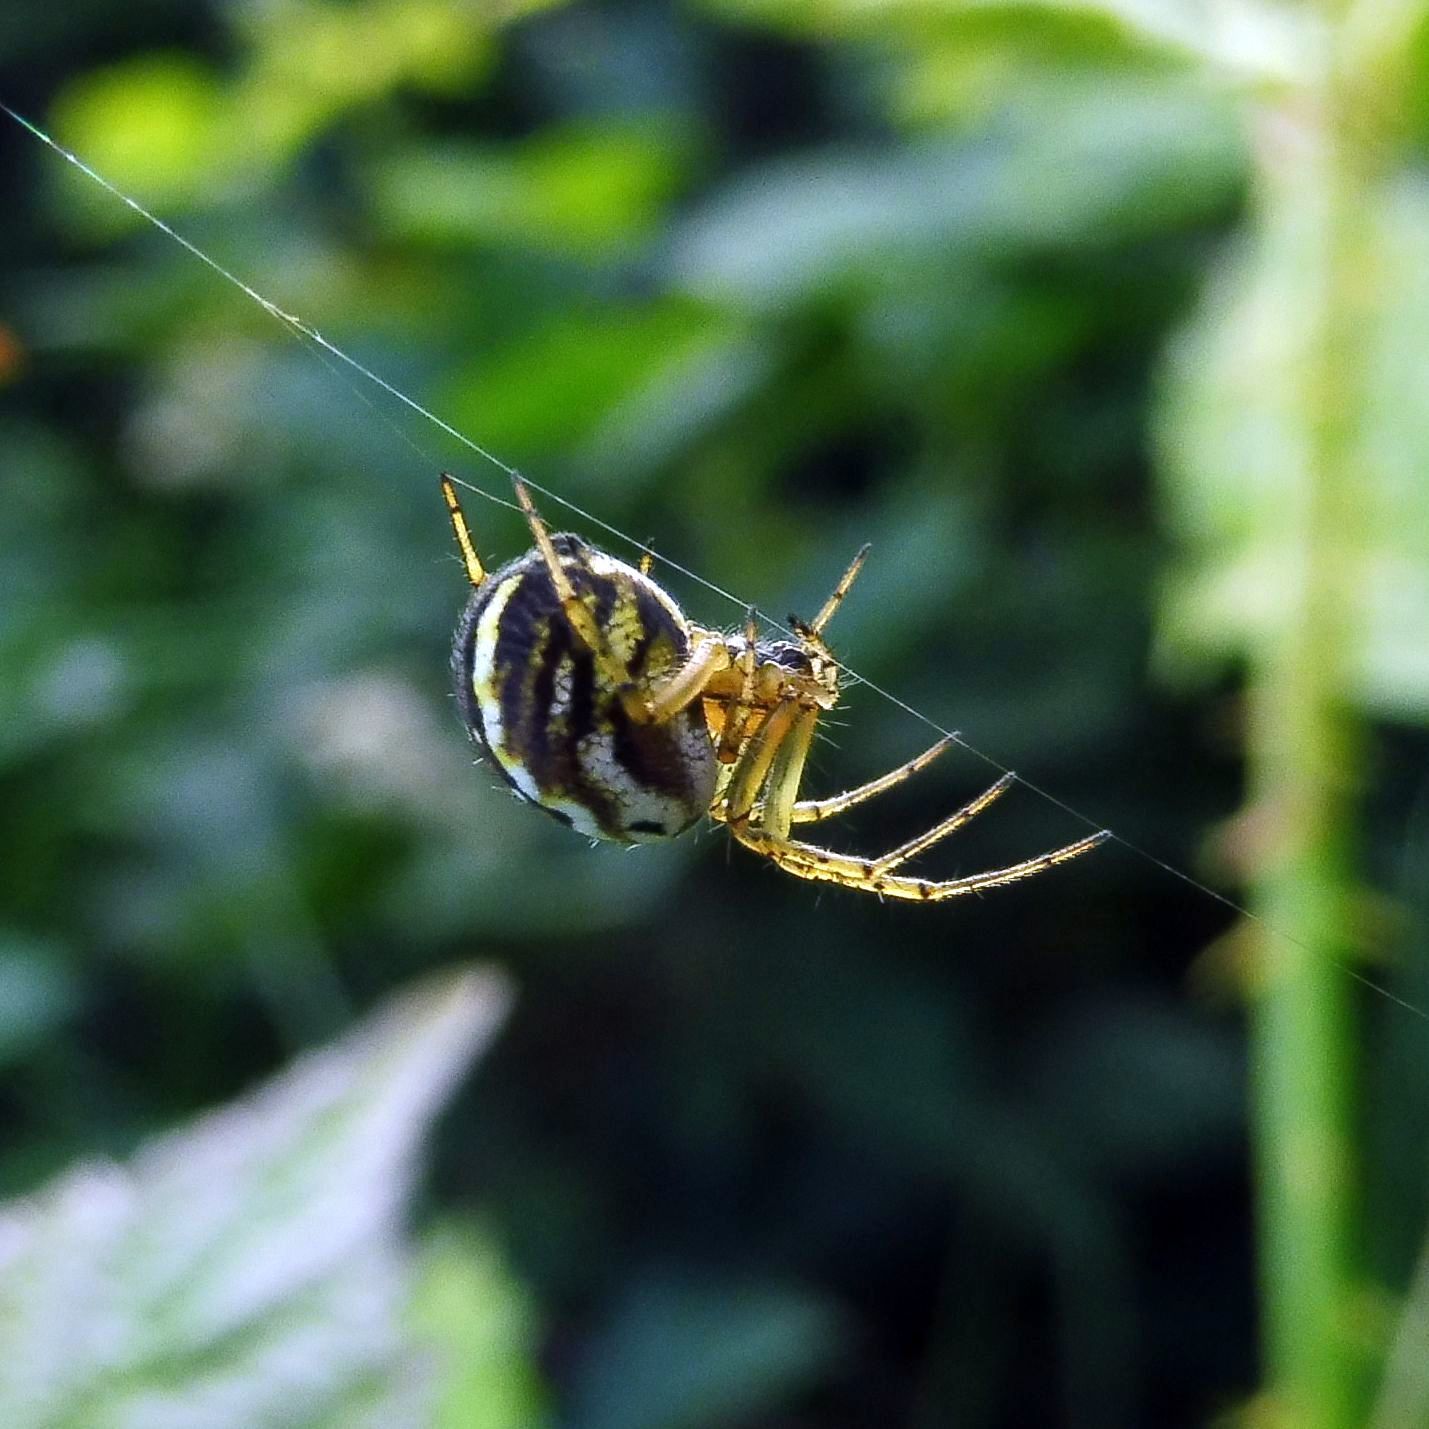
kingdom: Animalia
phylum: Arthropoda
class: Arachnida
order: Araneae
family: Araneidae
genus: Mangora
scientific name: Mangora acalypha
